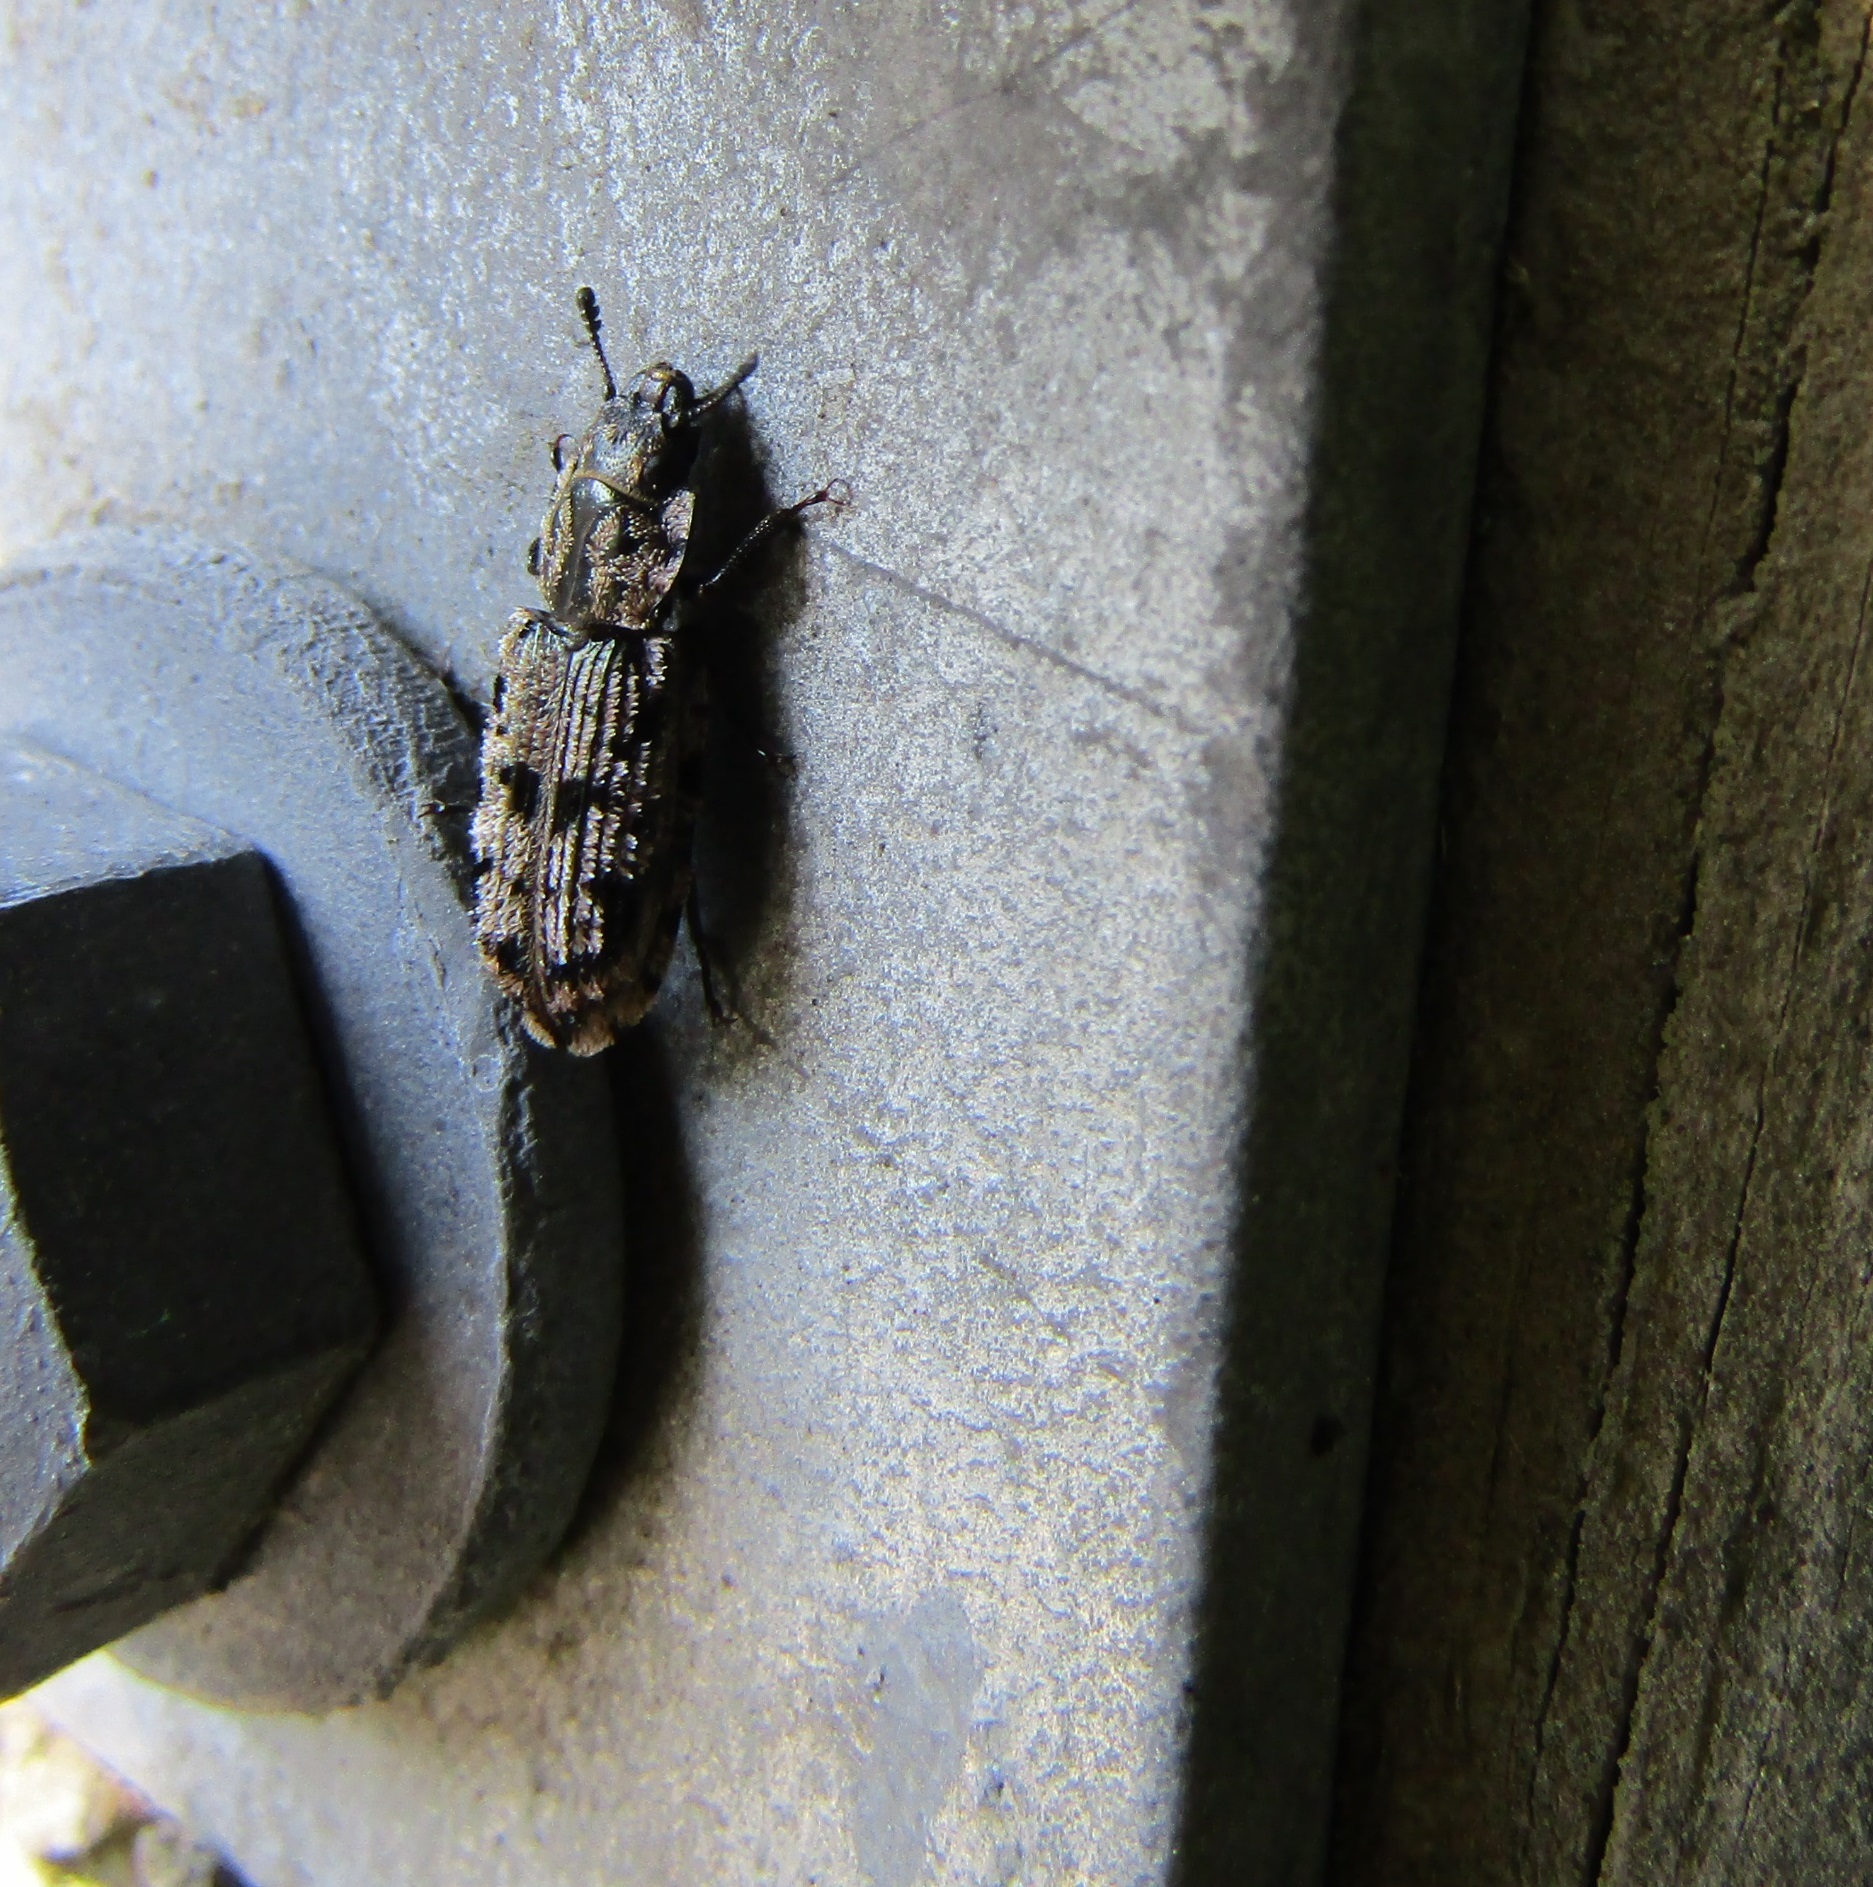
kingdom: Animalia
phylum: Arthropoda
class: Insecta
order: Coleoptera
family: Trogossitidae
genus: Phanodesta
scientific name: Phanodesta
